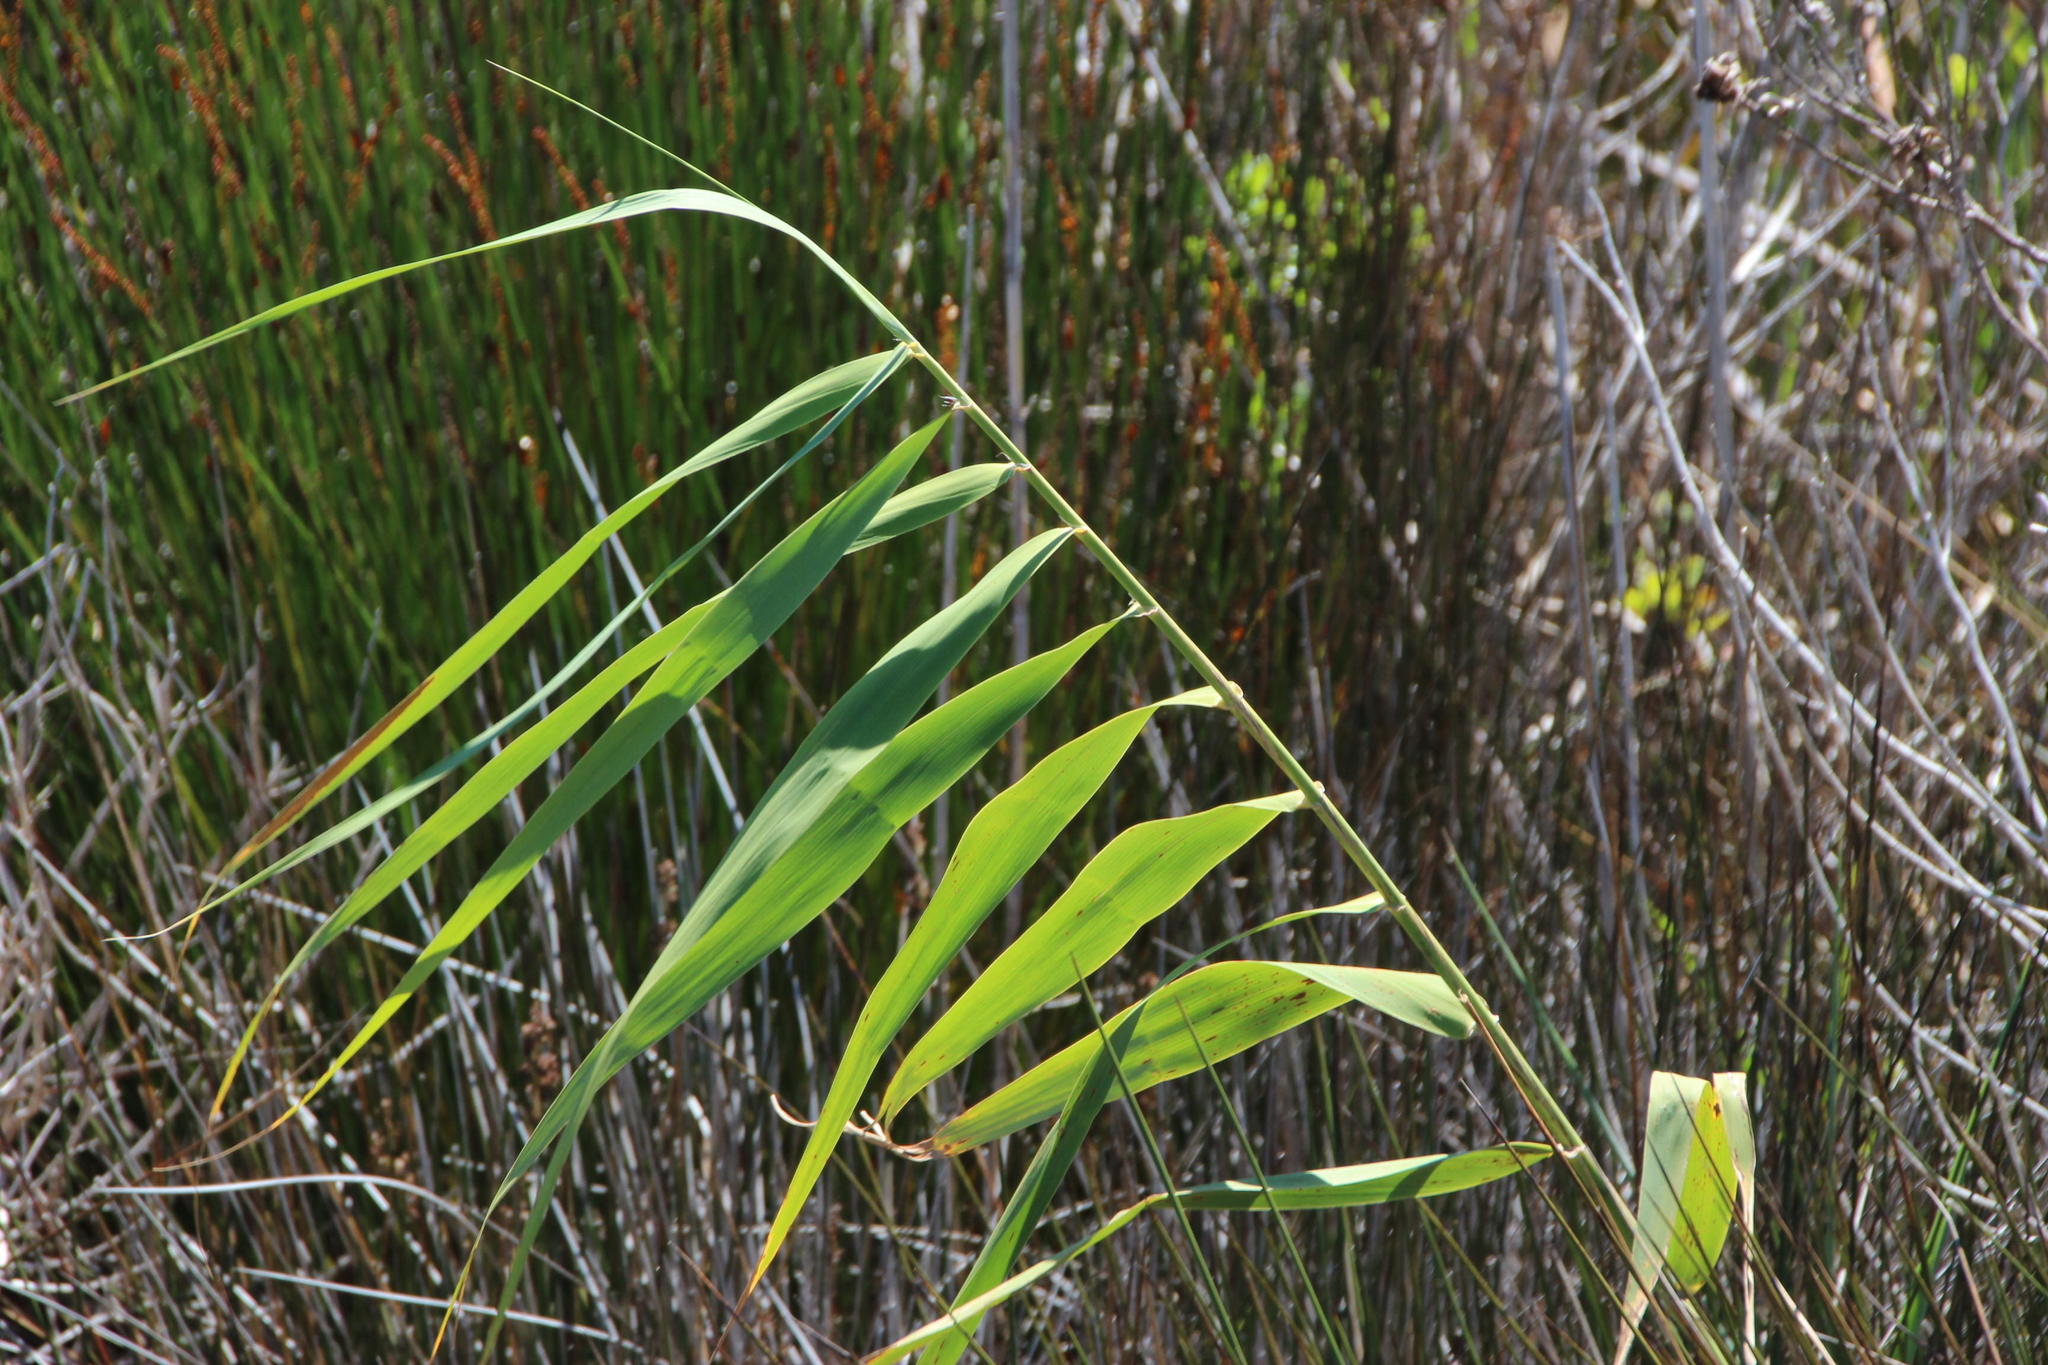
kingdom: Plantae
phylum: Tracheophyta
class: Liliopsida
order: Poales
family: Poaceae
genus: Phragmites
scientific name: Phragmites australis
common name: Common reed
